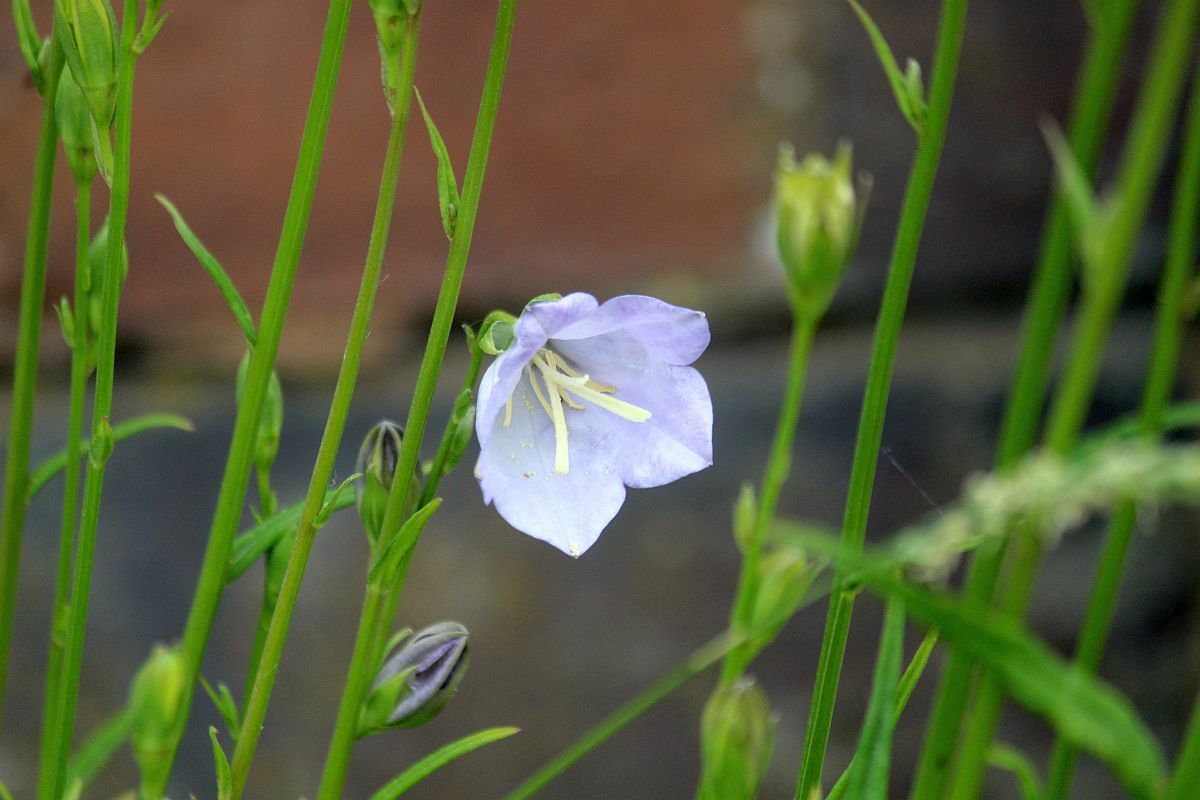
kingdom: Plantae
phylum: Tracheophyta
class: Magnoliopsida
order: Asterales
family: Campanulaceae
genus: Campanula
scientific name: Campanula persicifolia
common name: Peach-leaved bellflower
